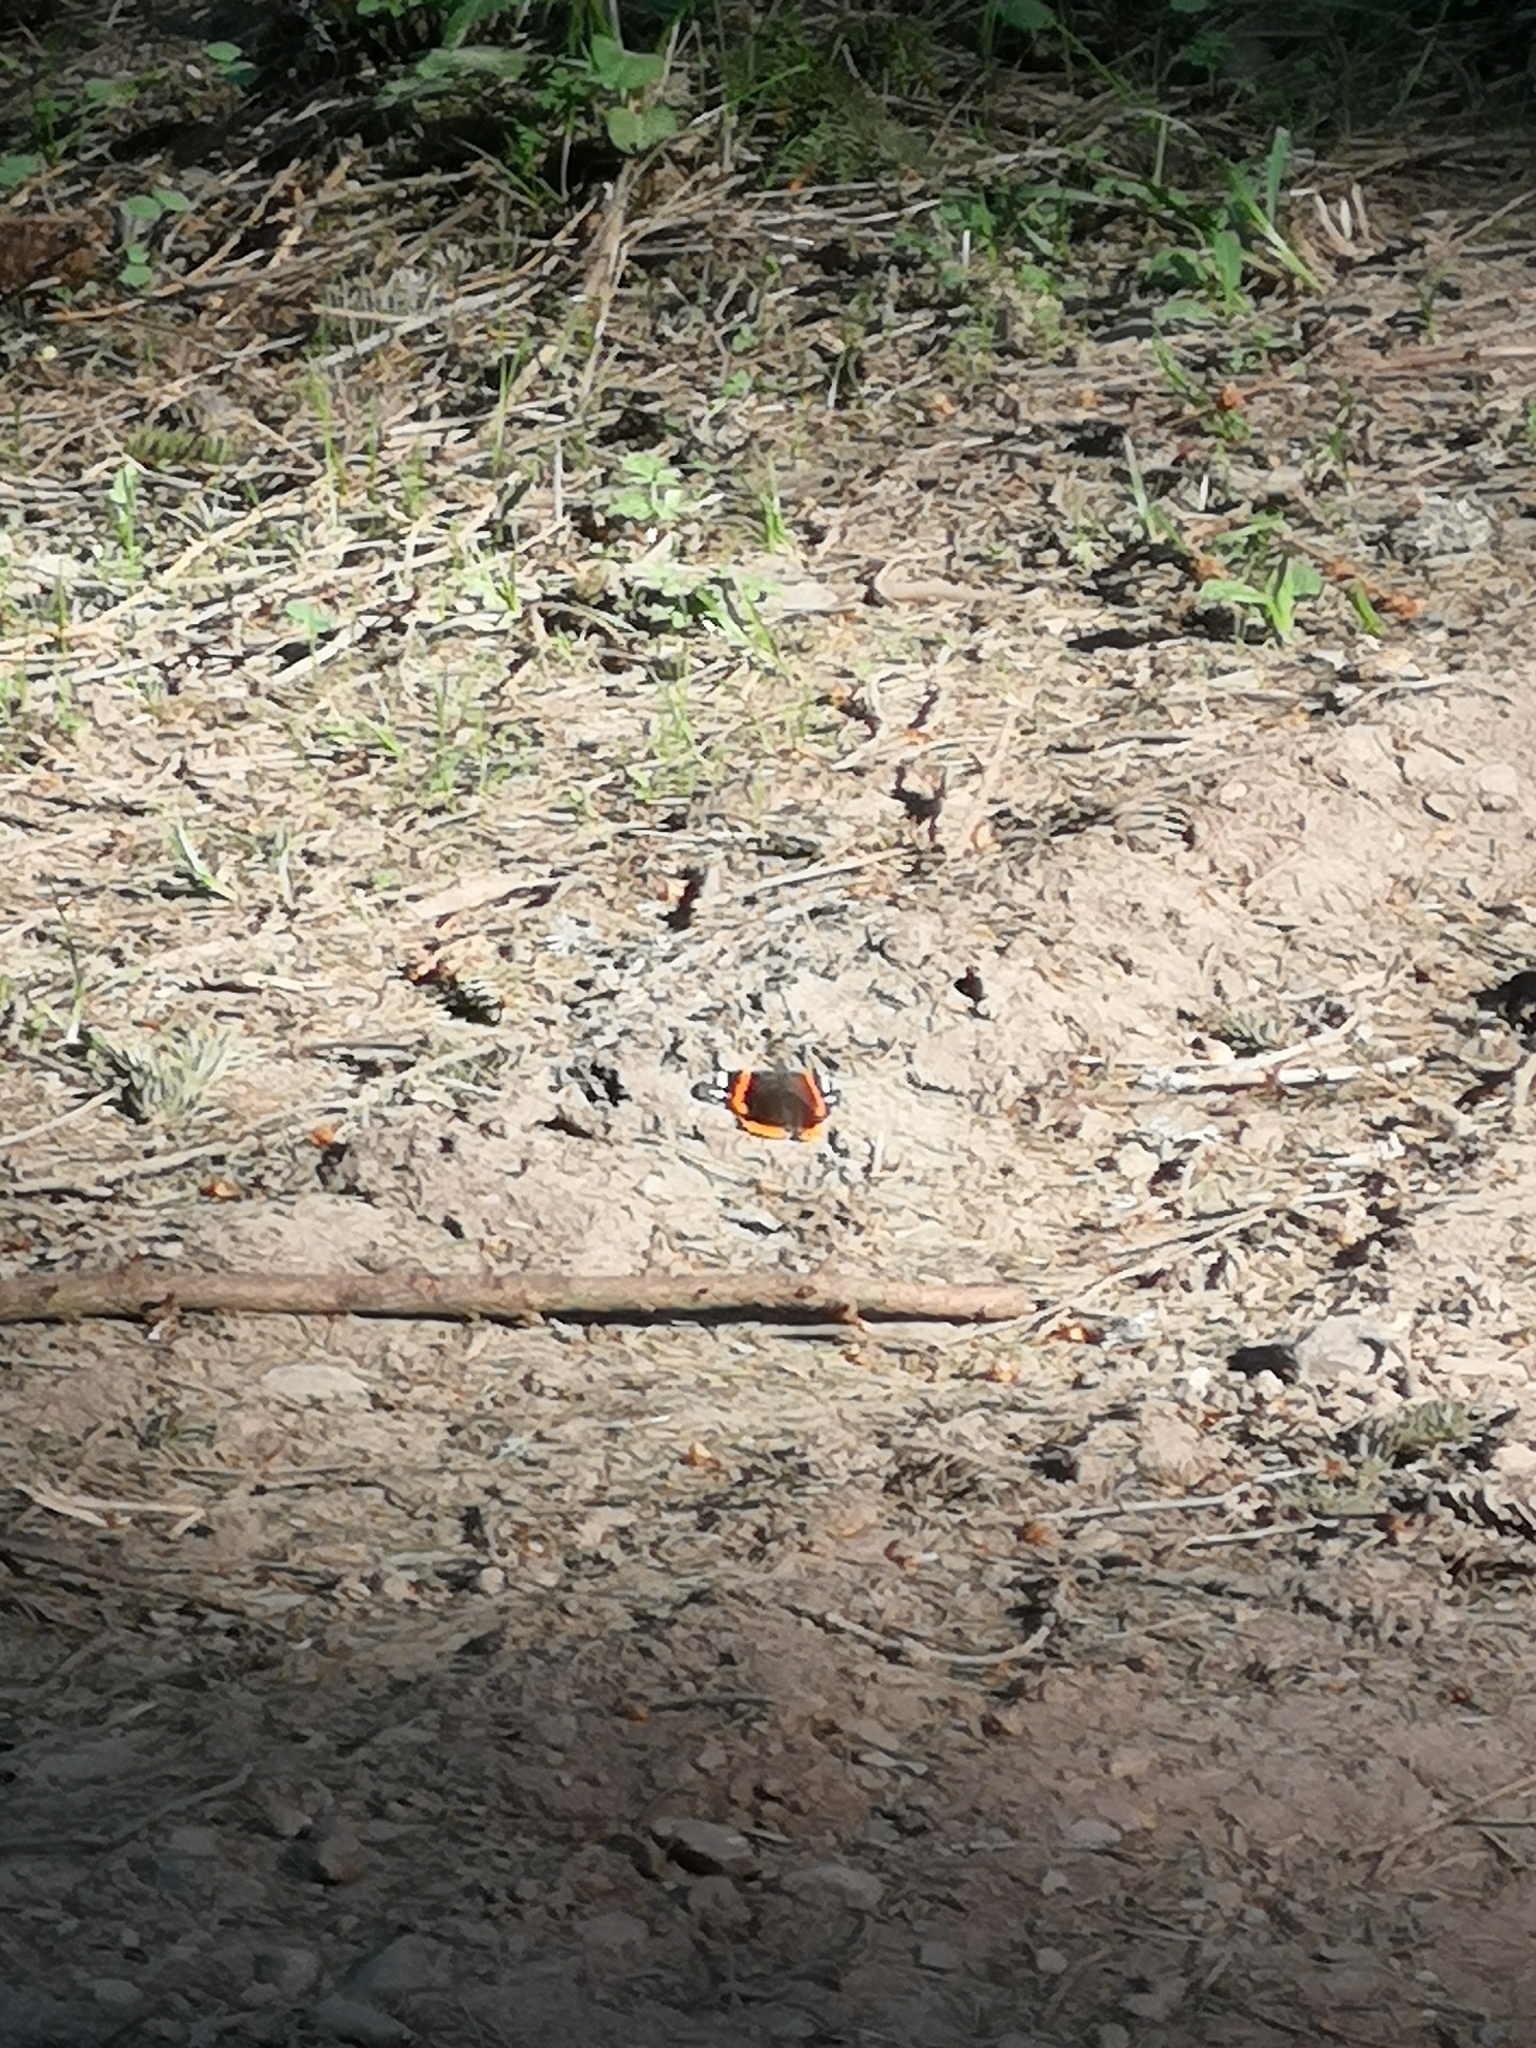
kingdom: Animalia
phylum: Arthropoda
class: Insecta
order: Lepidoptera
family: Nymphalidae
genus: Vanessa
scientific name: Vanessa atalanta
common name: Red admiral
